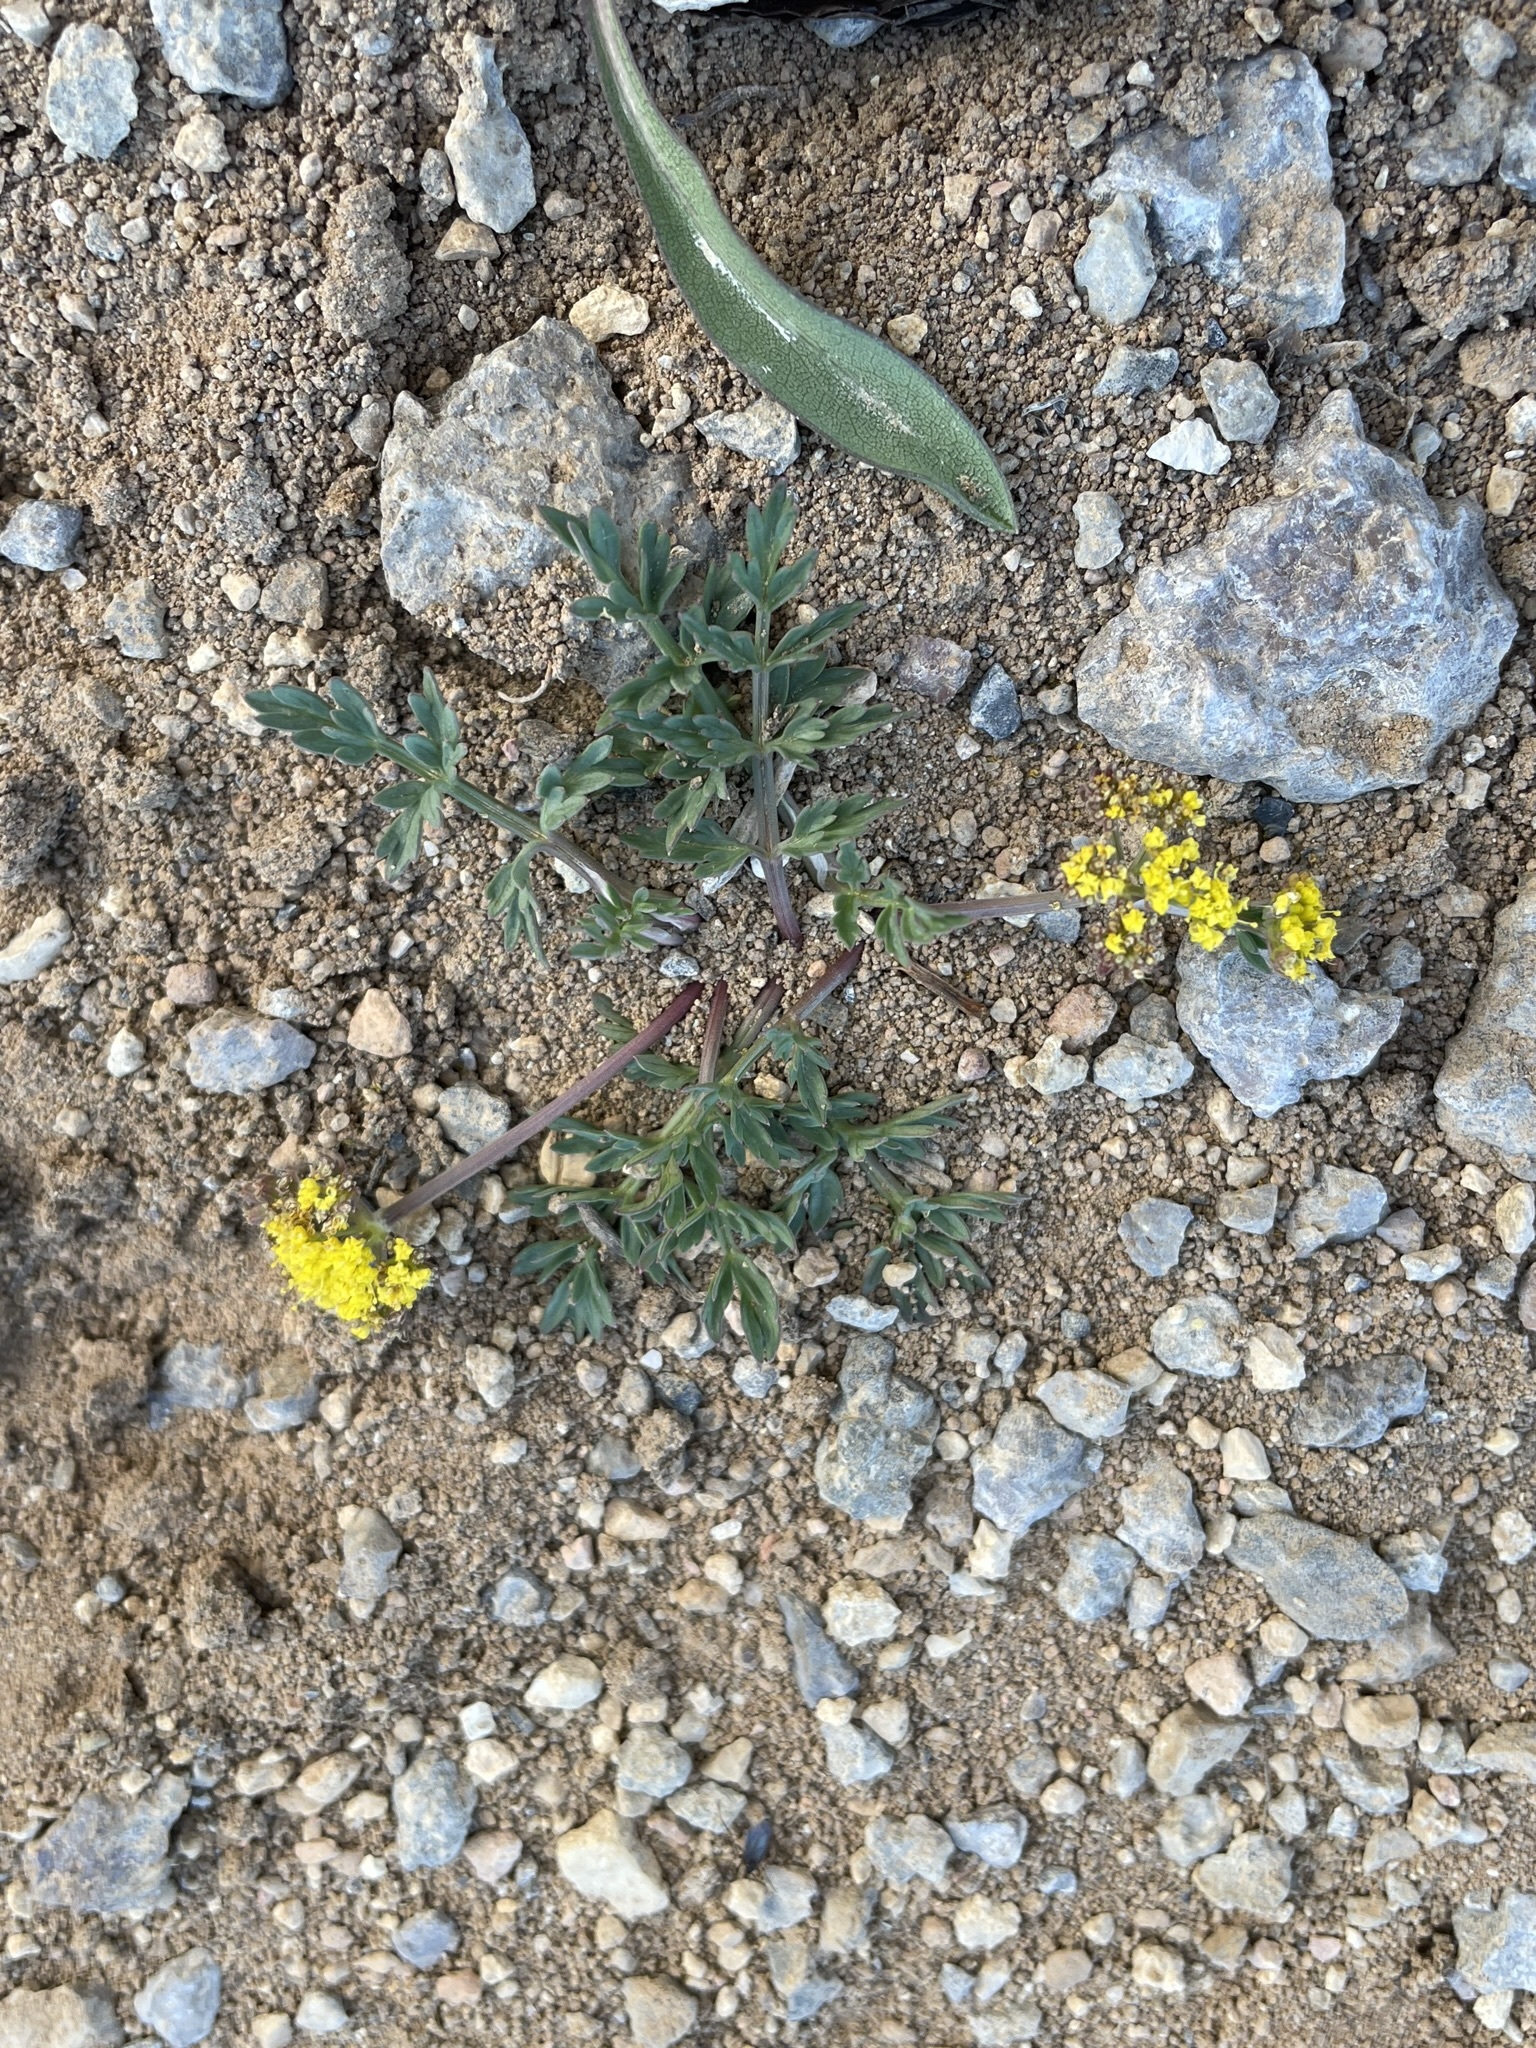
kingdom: Plantae
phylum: Tracheophyta
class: Magnoliopsida
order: Apiales
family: Apiaceae
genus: Lomatium
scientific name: Lomatium minimum
